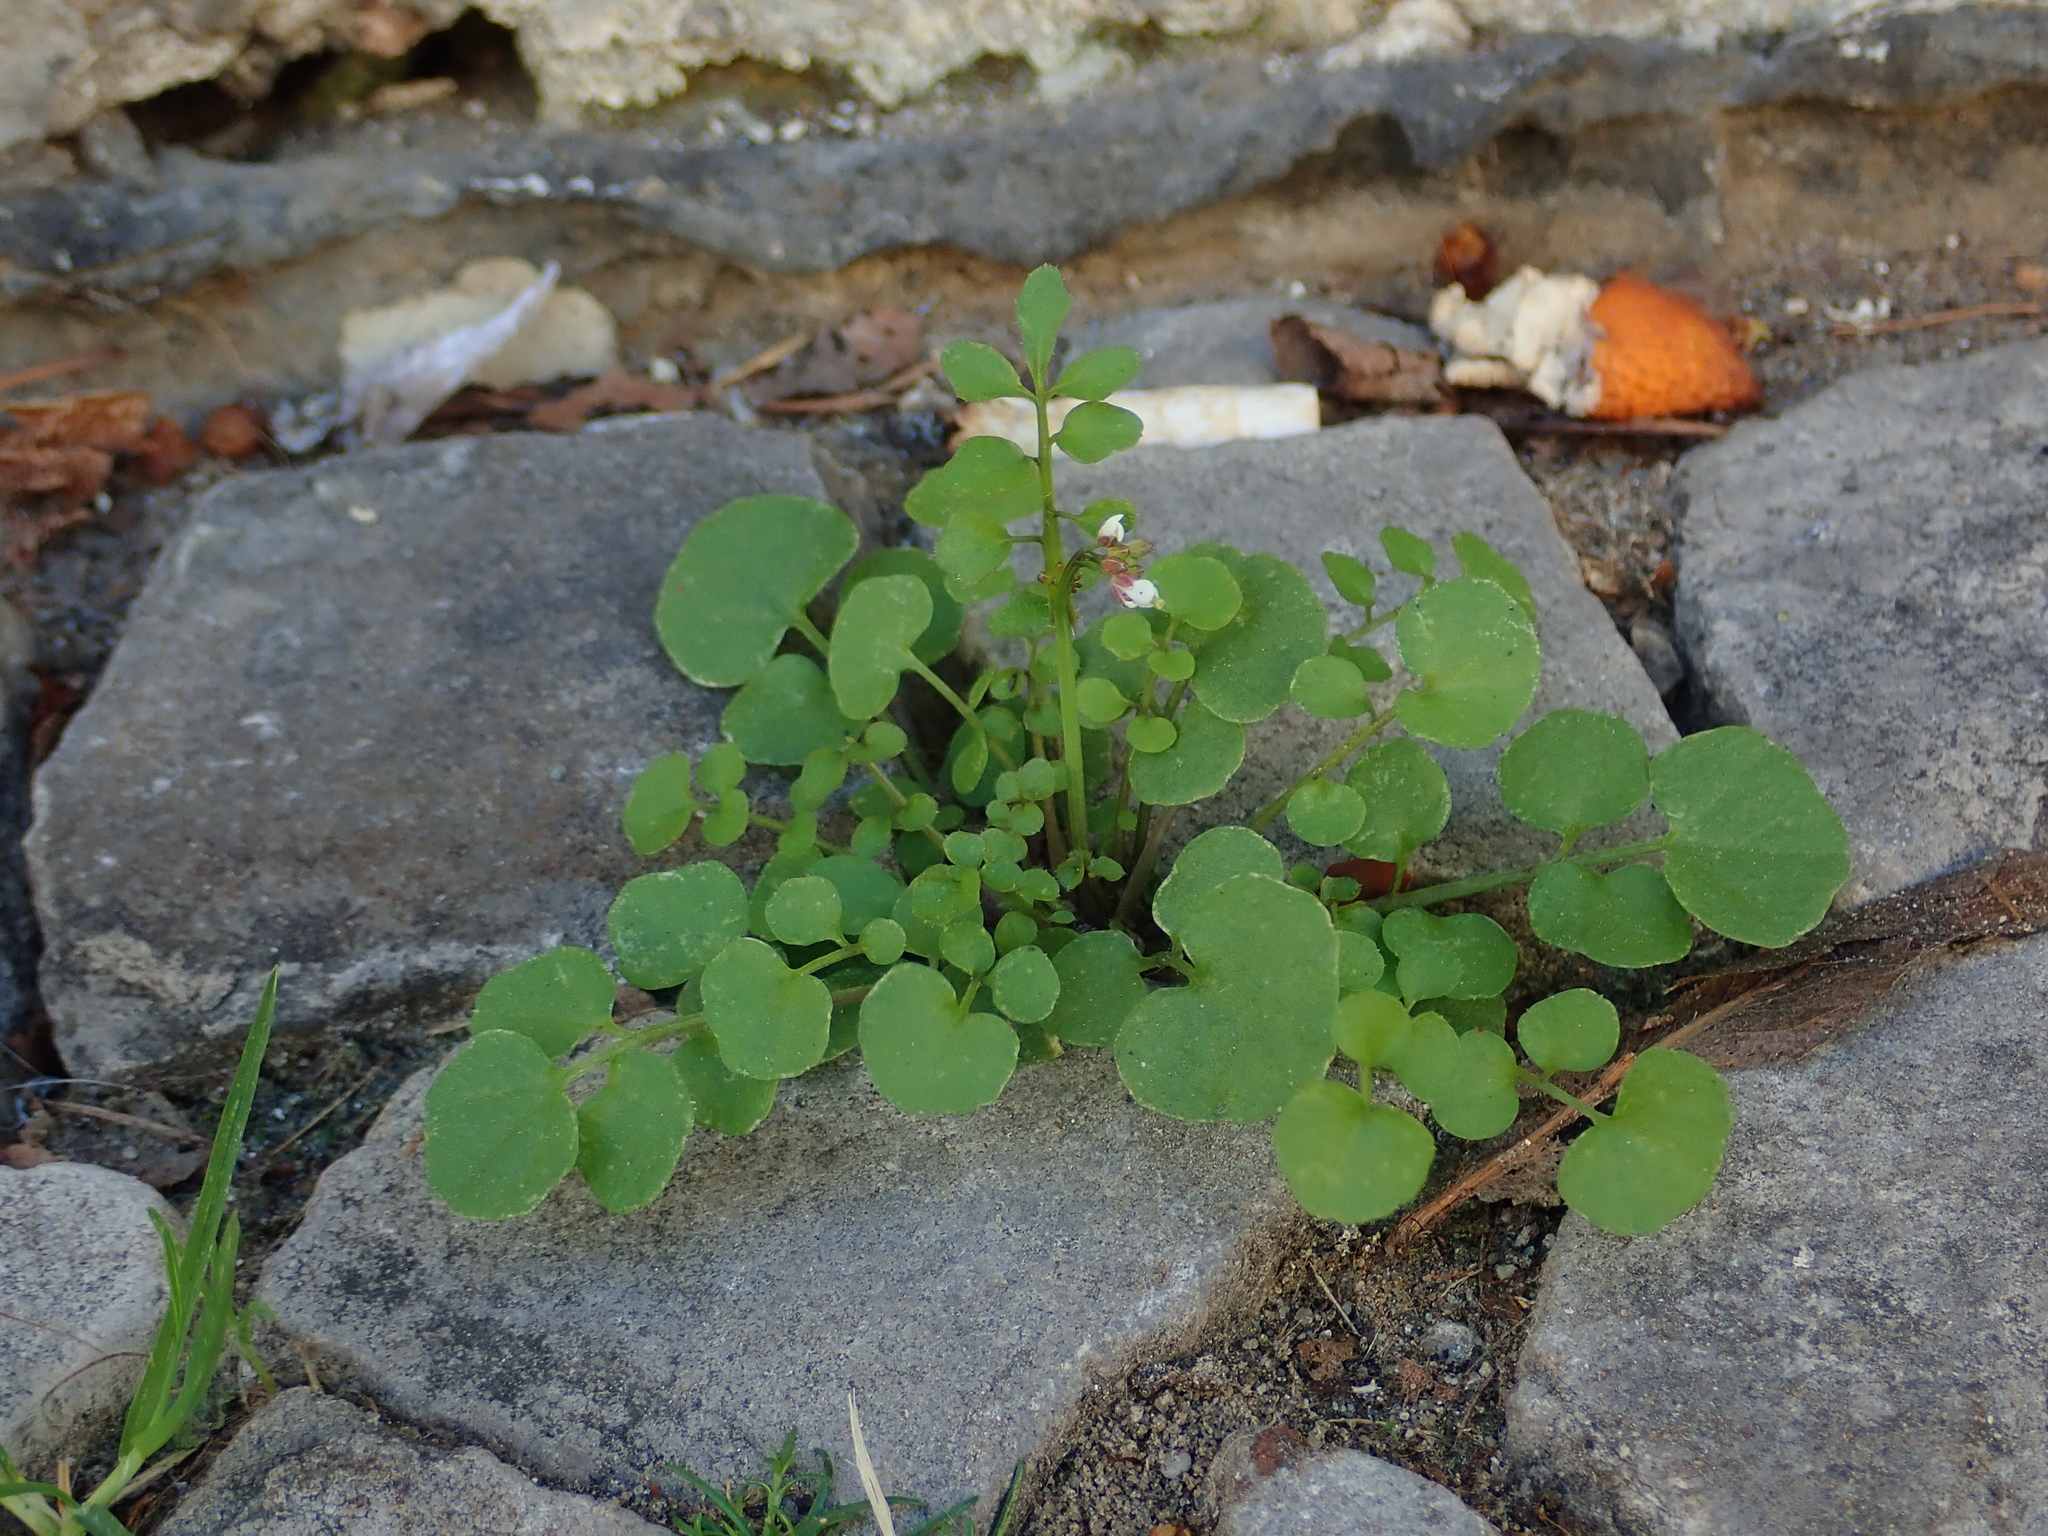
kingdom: Plantae
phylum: Tracheophyta
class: Magnoliopsida
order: Brassicales
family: Brassicaceae
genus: Cardamine
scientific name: Cardamine hirsuta
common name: Hairy bittercress
